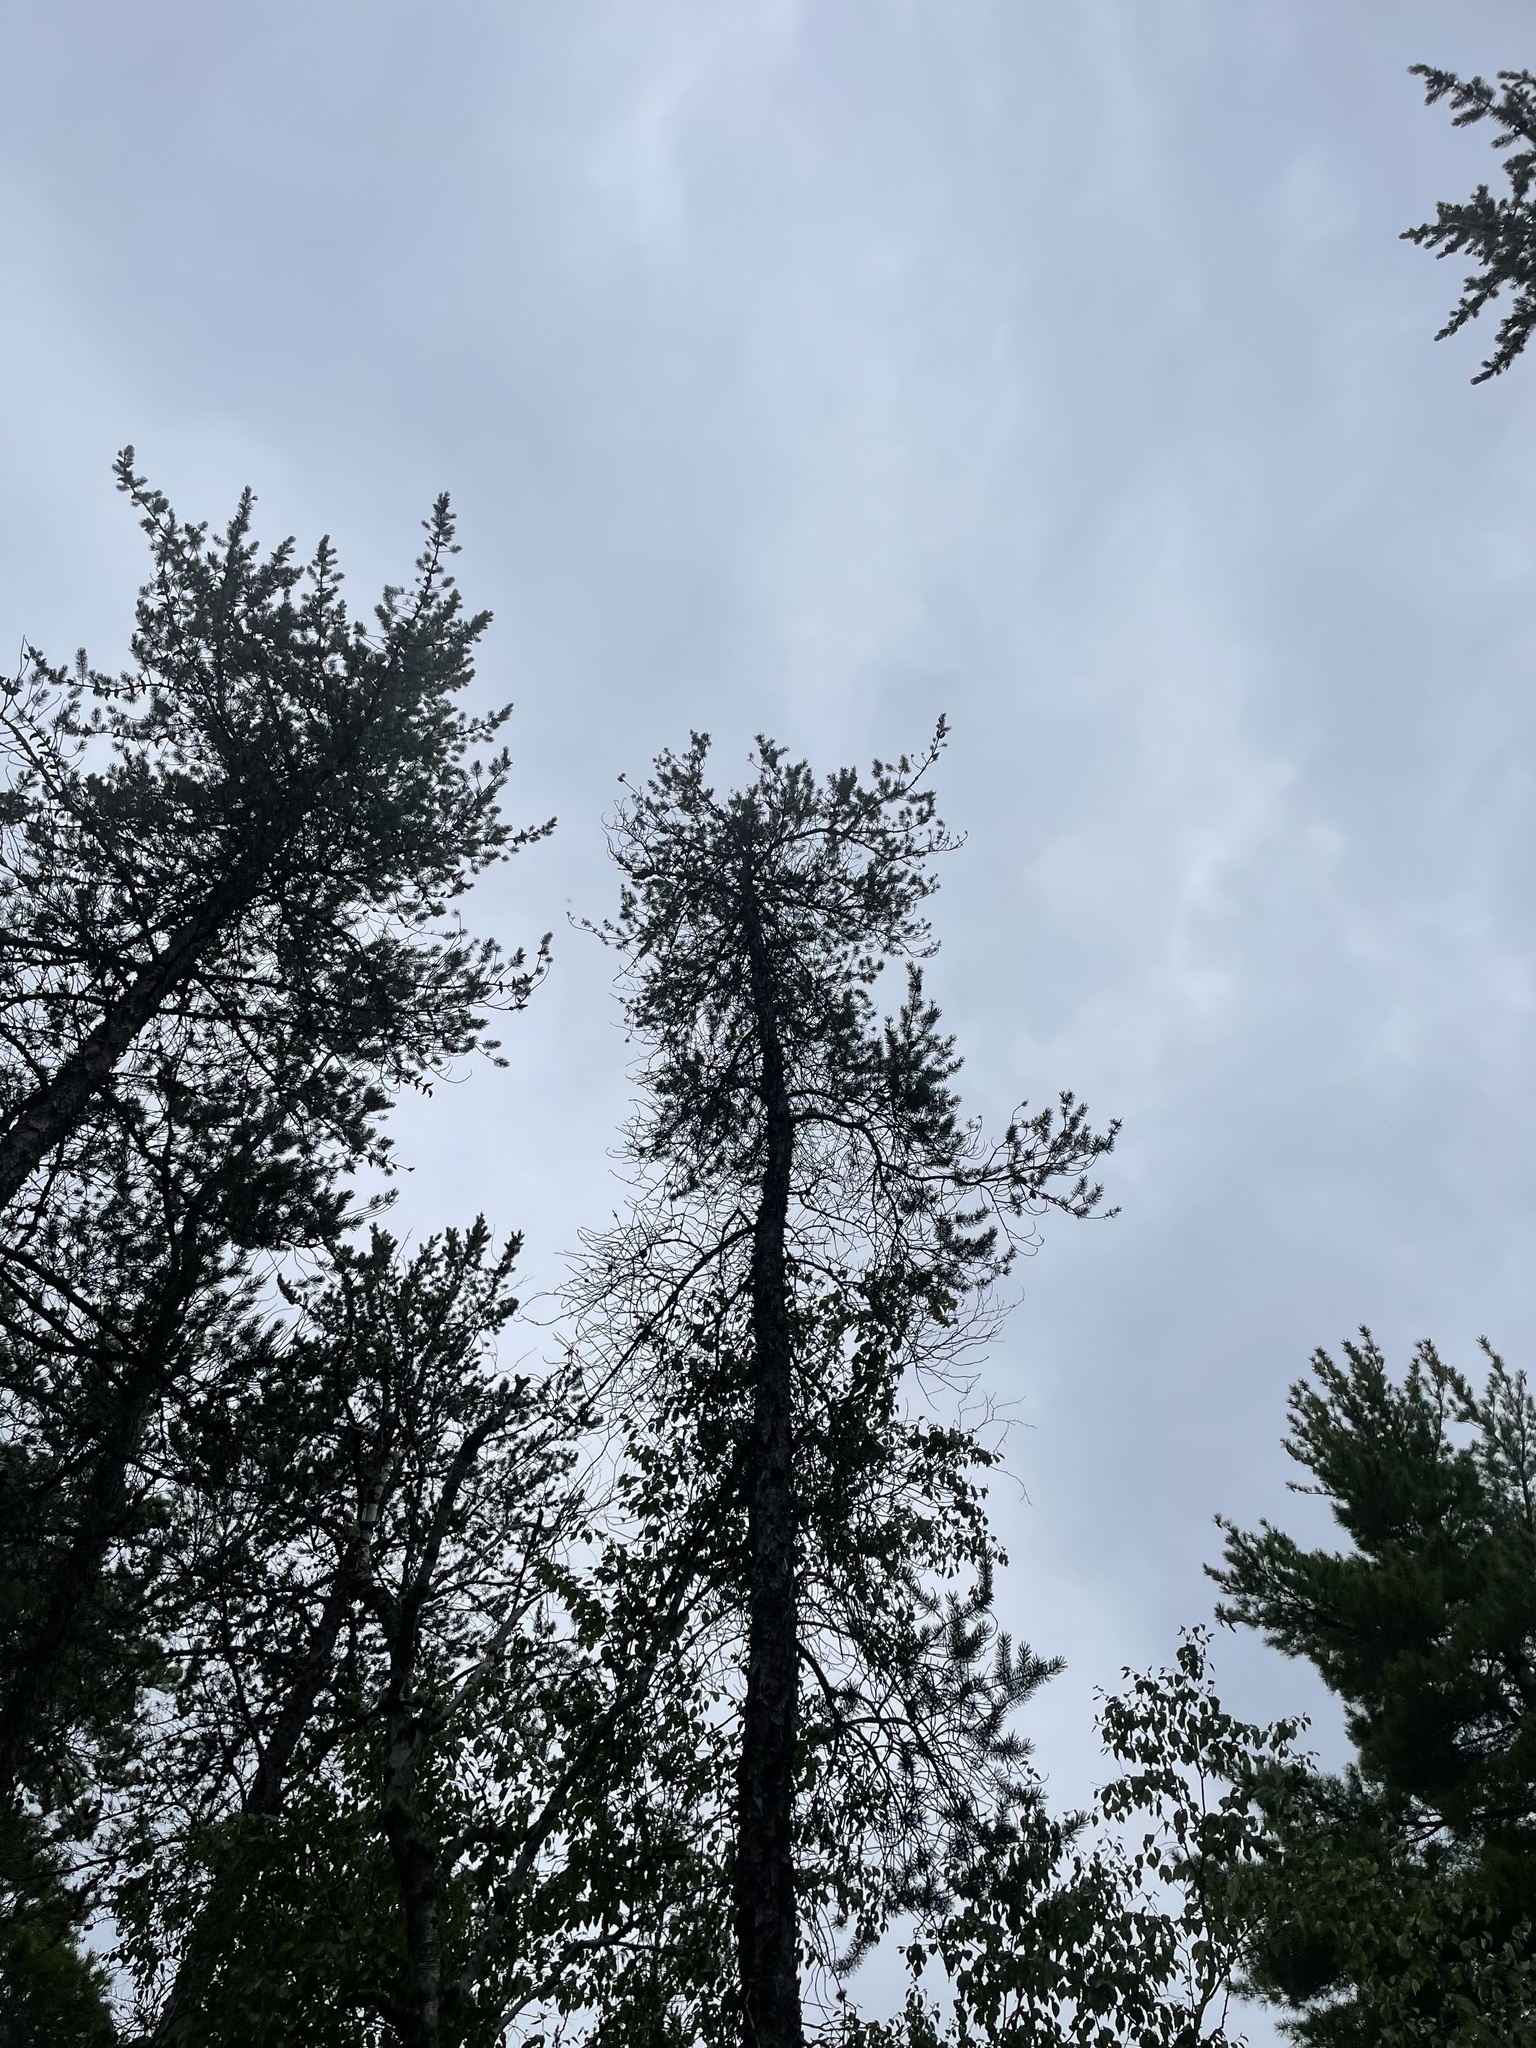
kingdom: Plantae
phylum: Tracheophyta
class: Pinopsida
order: Pinales
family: Pinaceae
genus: Pinus
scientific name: Pinus banksiana
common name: Jack pine
